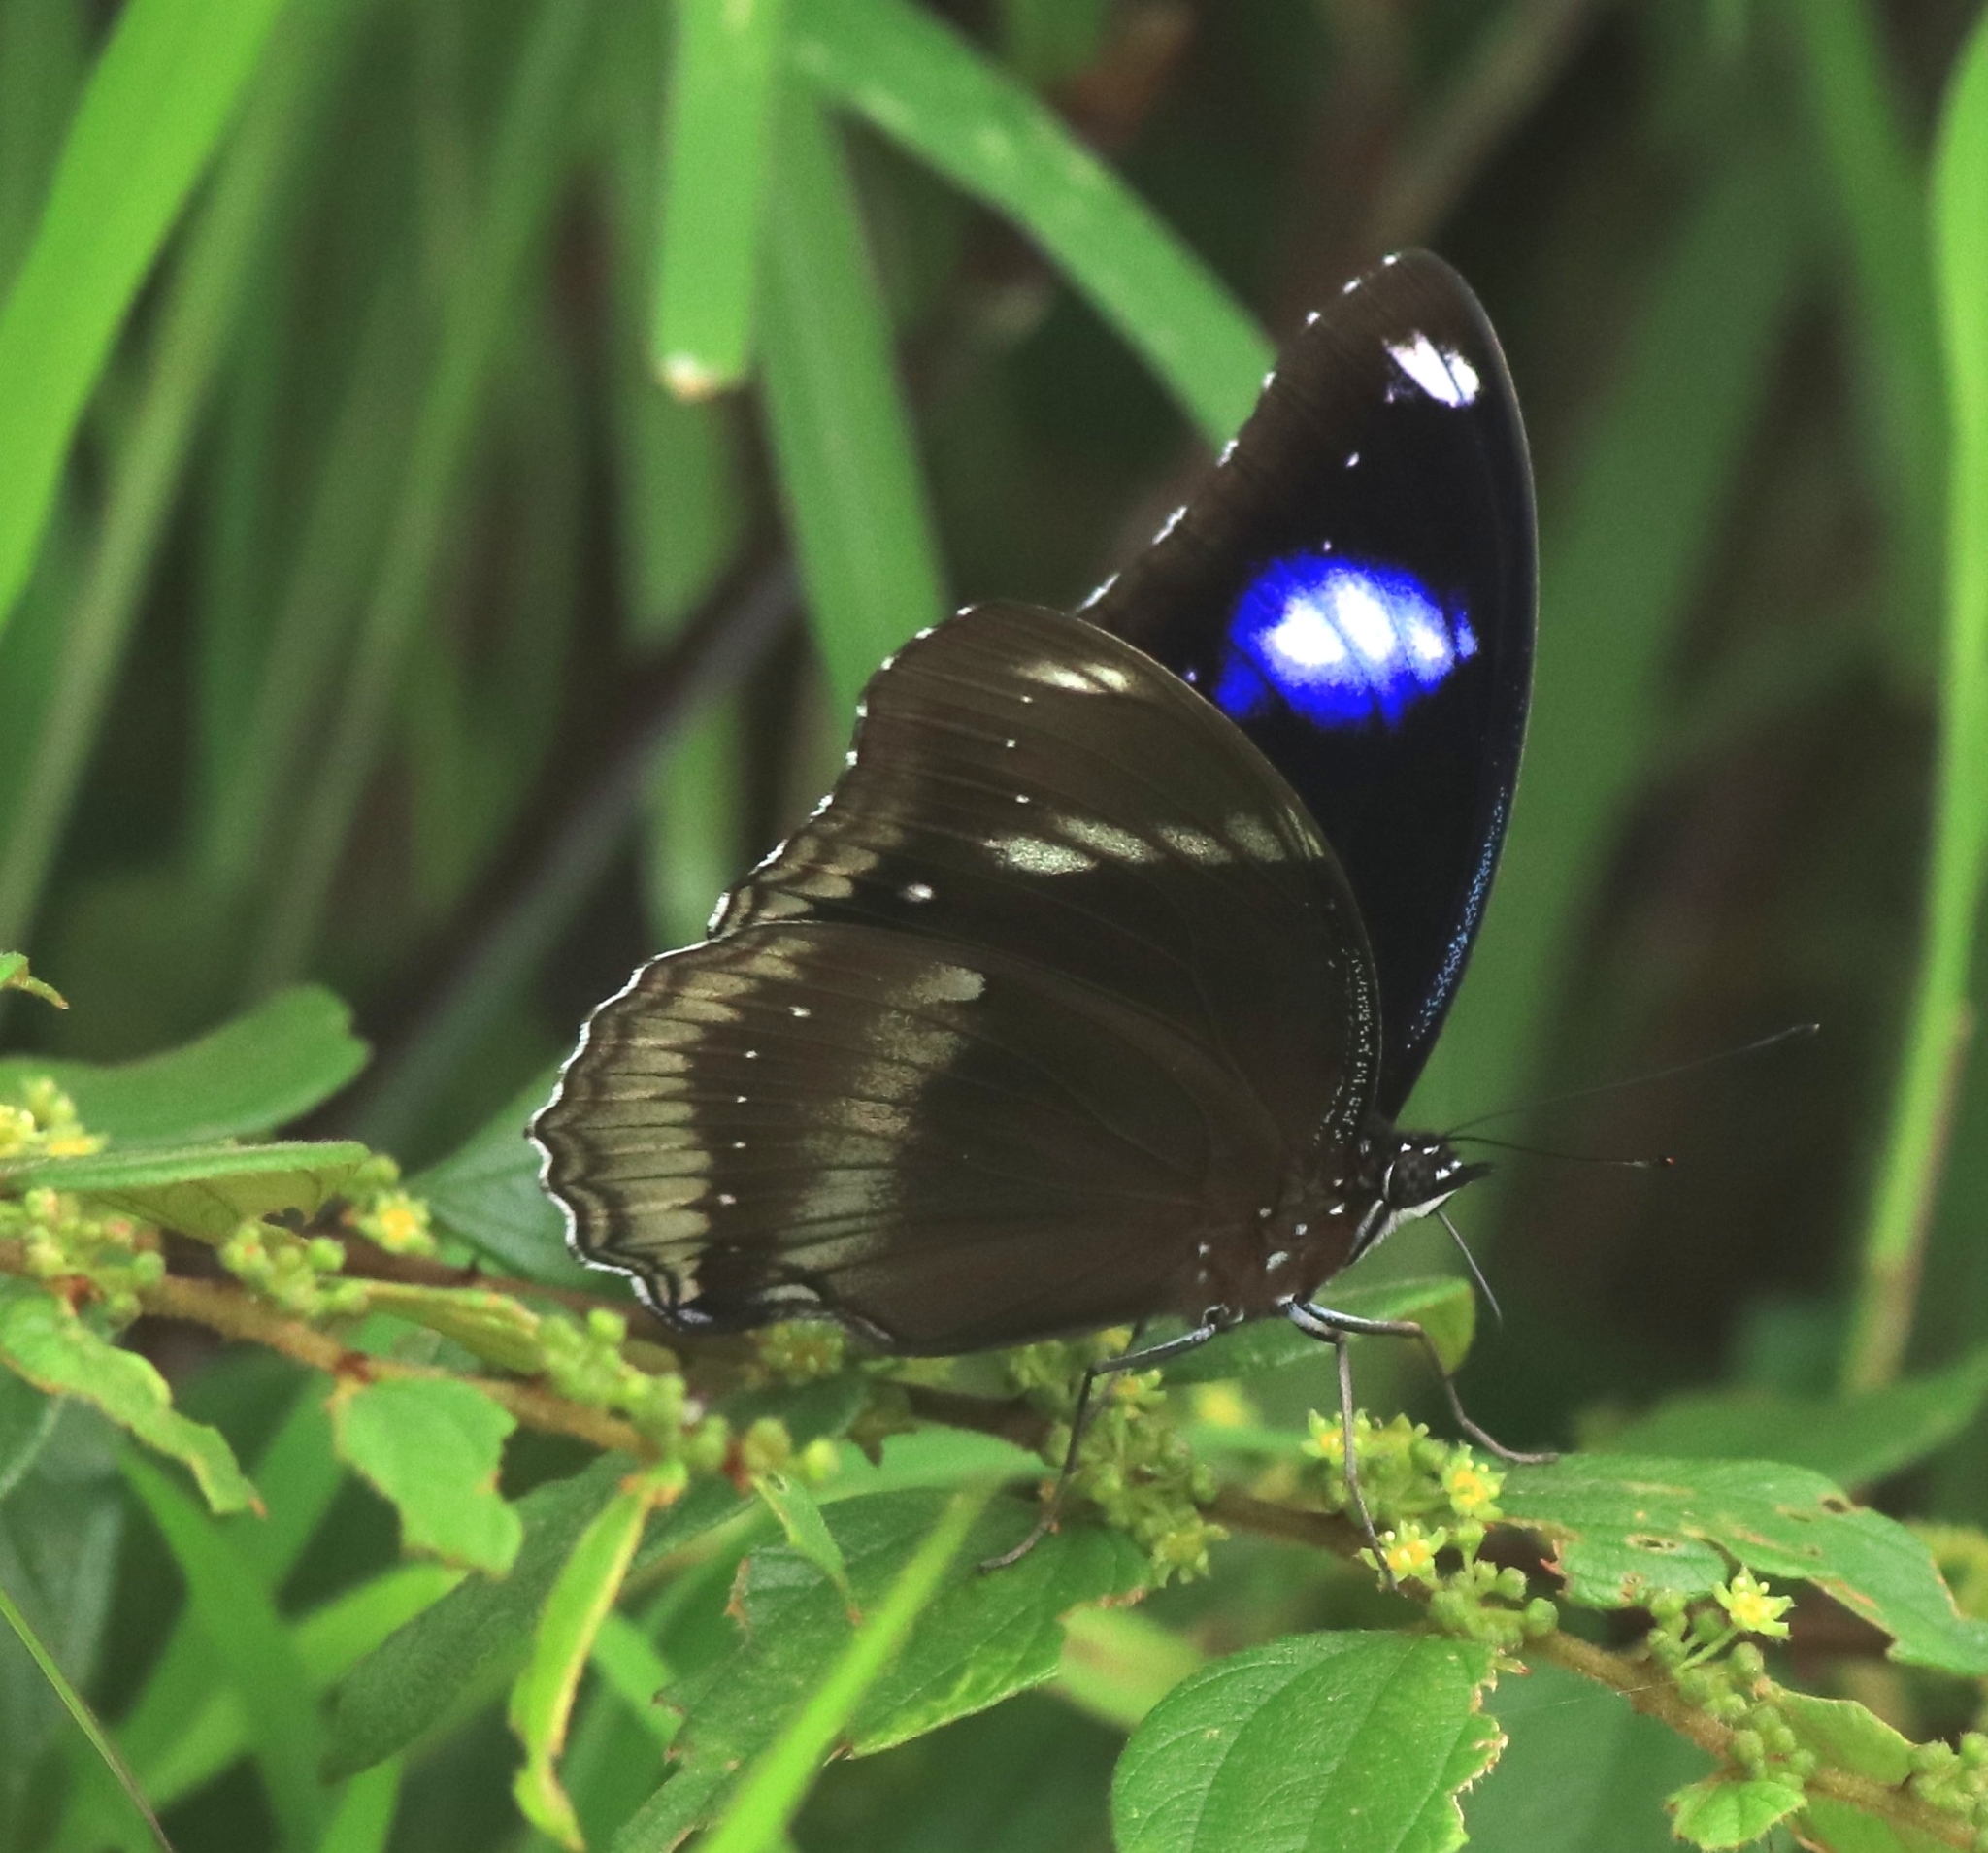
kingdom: Animalia
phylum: Arthropoda
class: Insecta
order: Lepidoptera
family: Nymphalidae
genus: Hypolimnas
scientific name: Hypolimnas bolina
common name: Great eggfly
